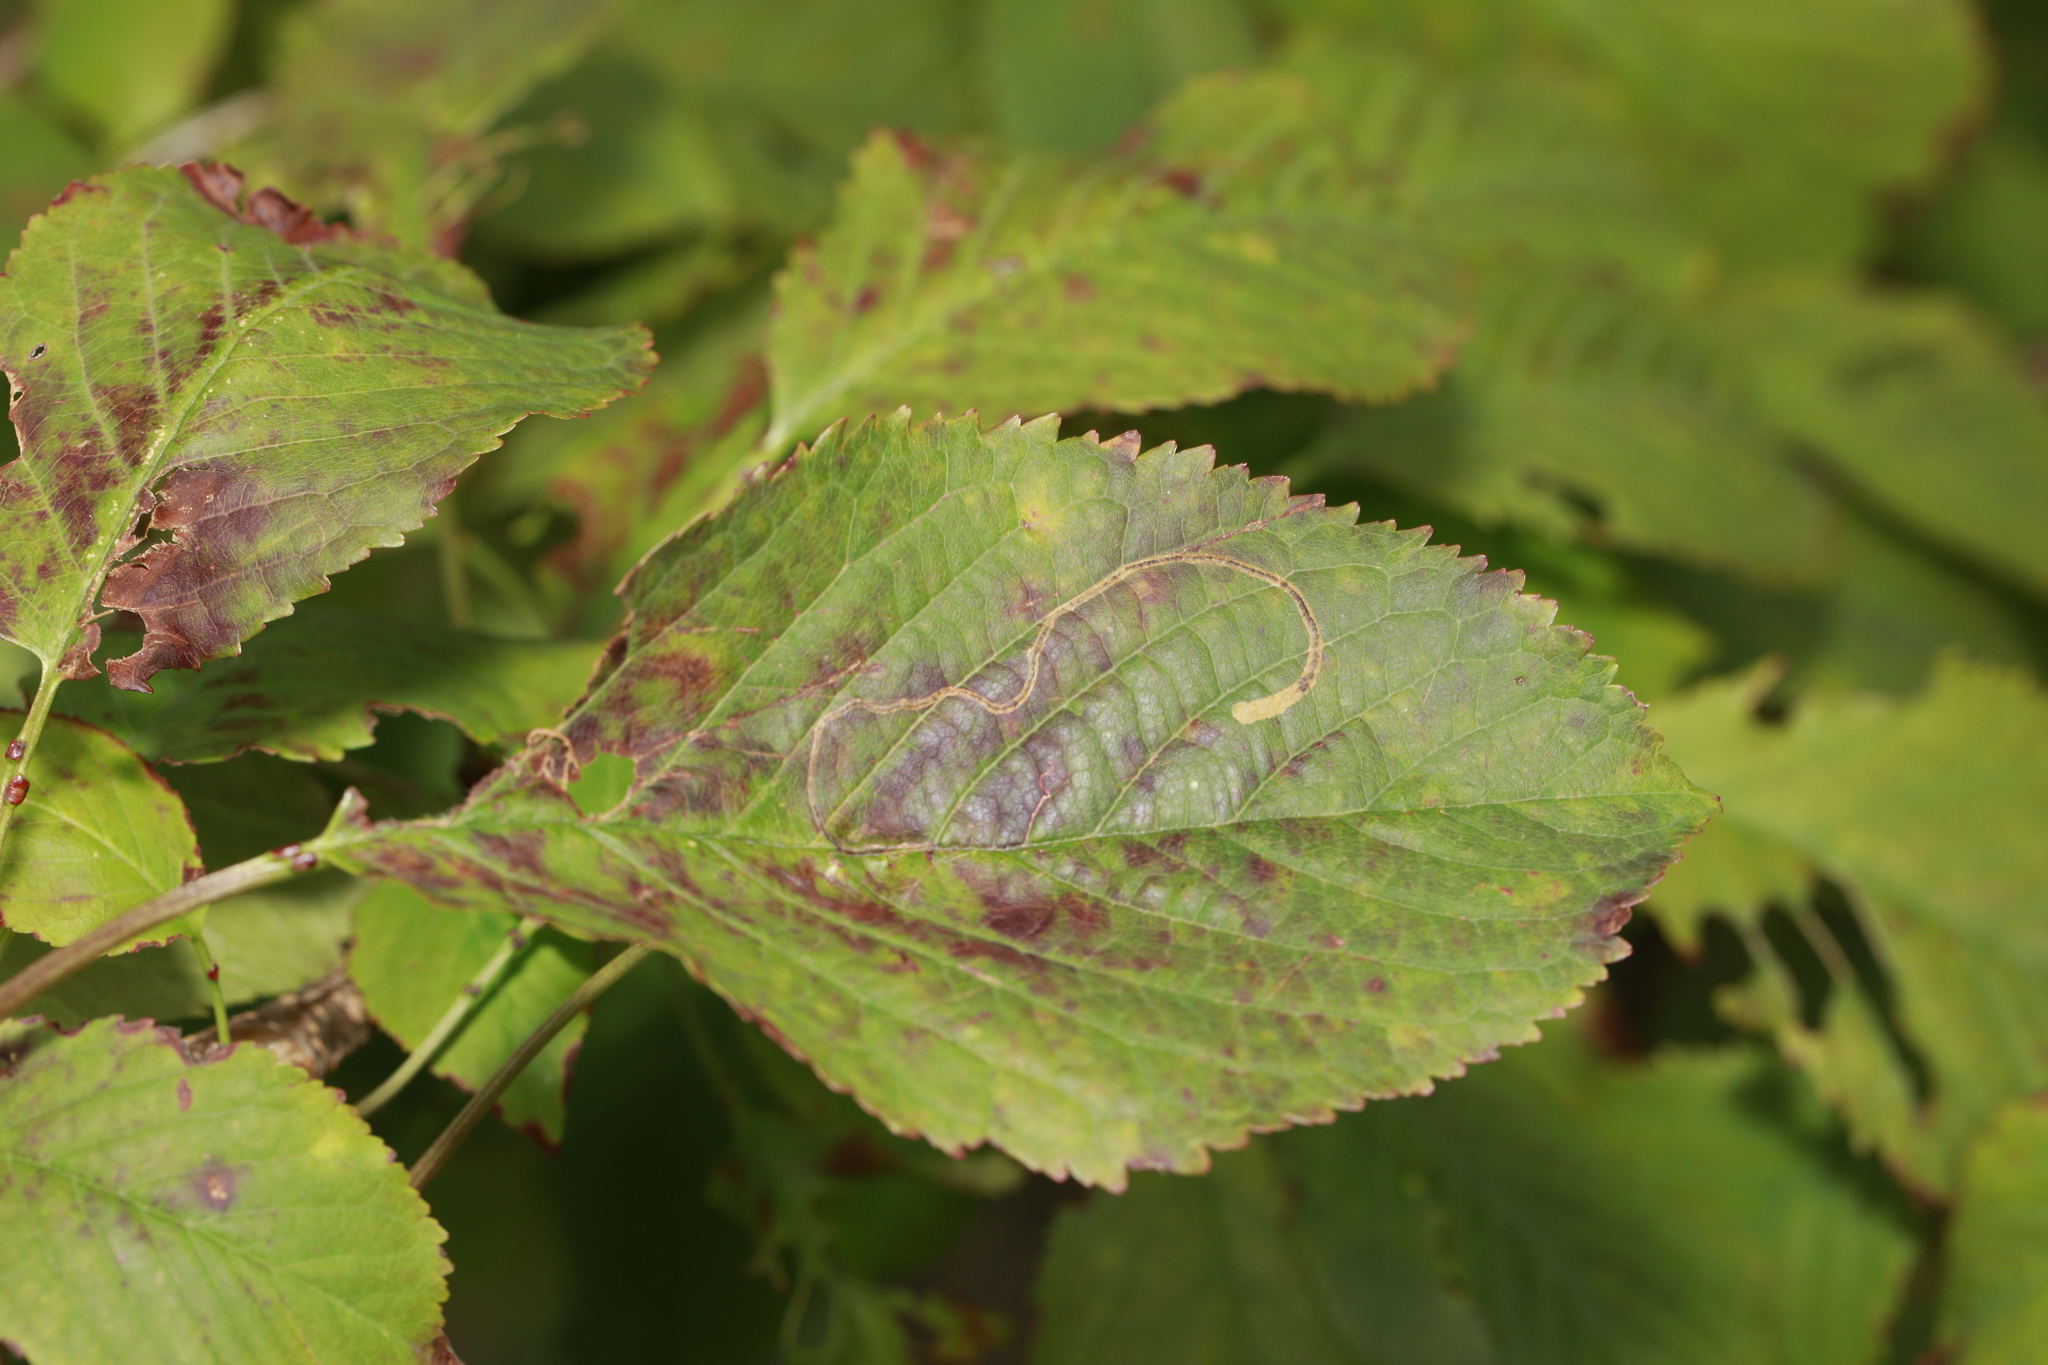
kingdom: Animalia
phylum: Arthropoda
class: Insecta
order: Lepidoptera
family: Lyonetiidae
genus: Lyonetia
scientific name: Lyonetia clerkella
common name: Apple leaf miner
